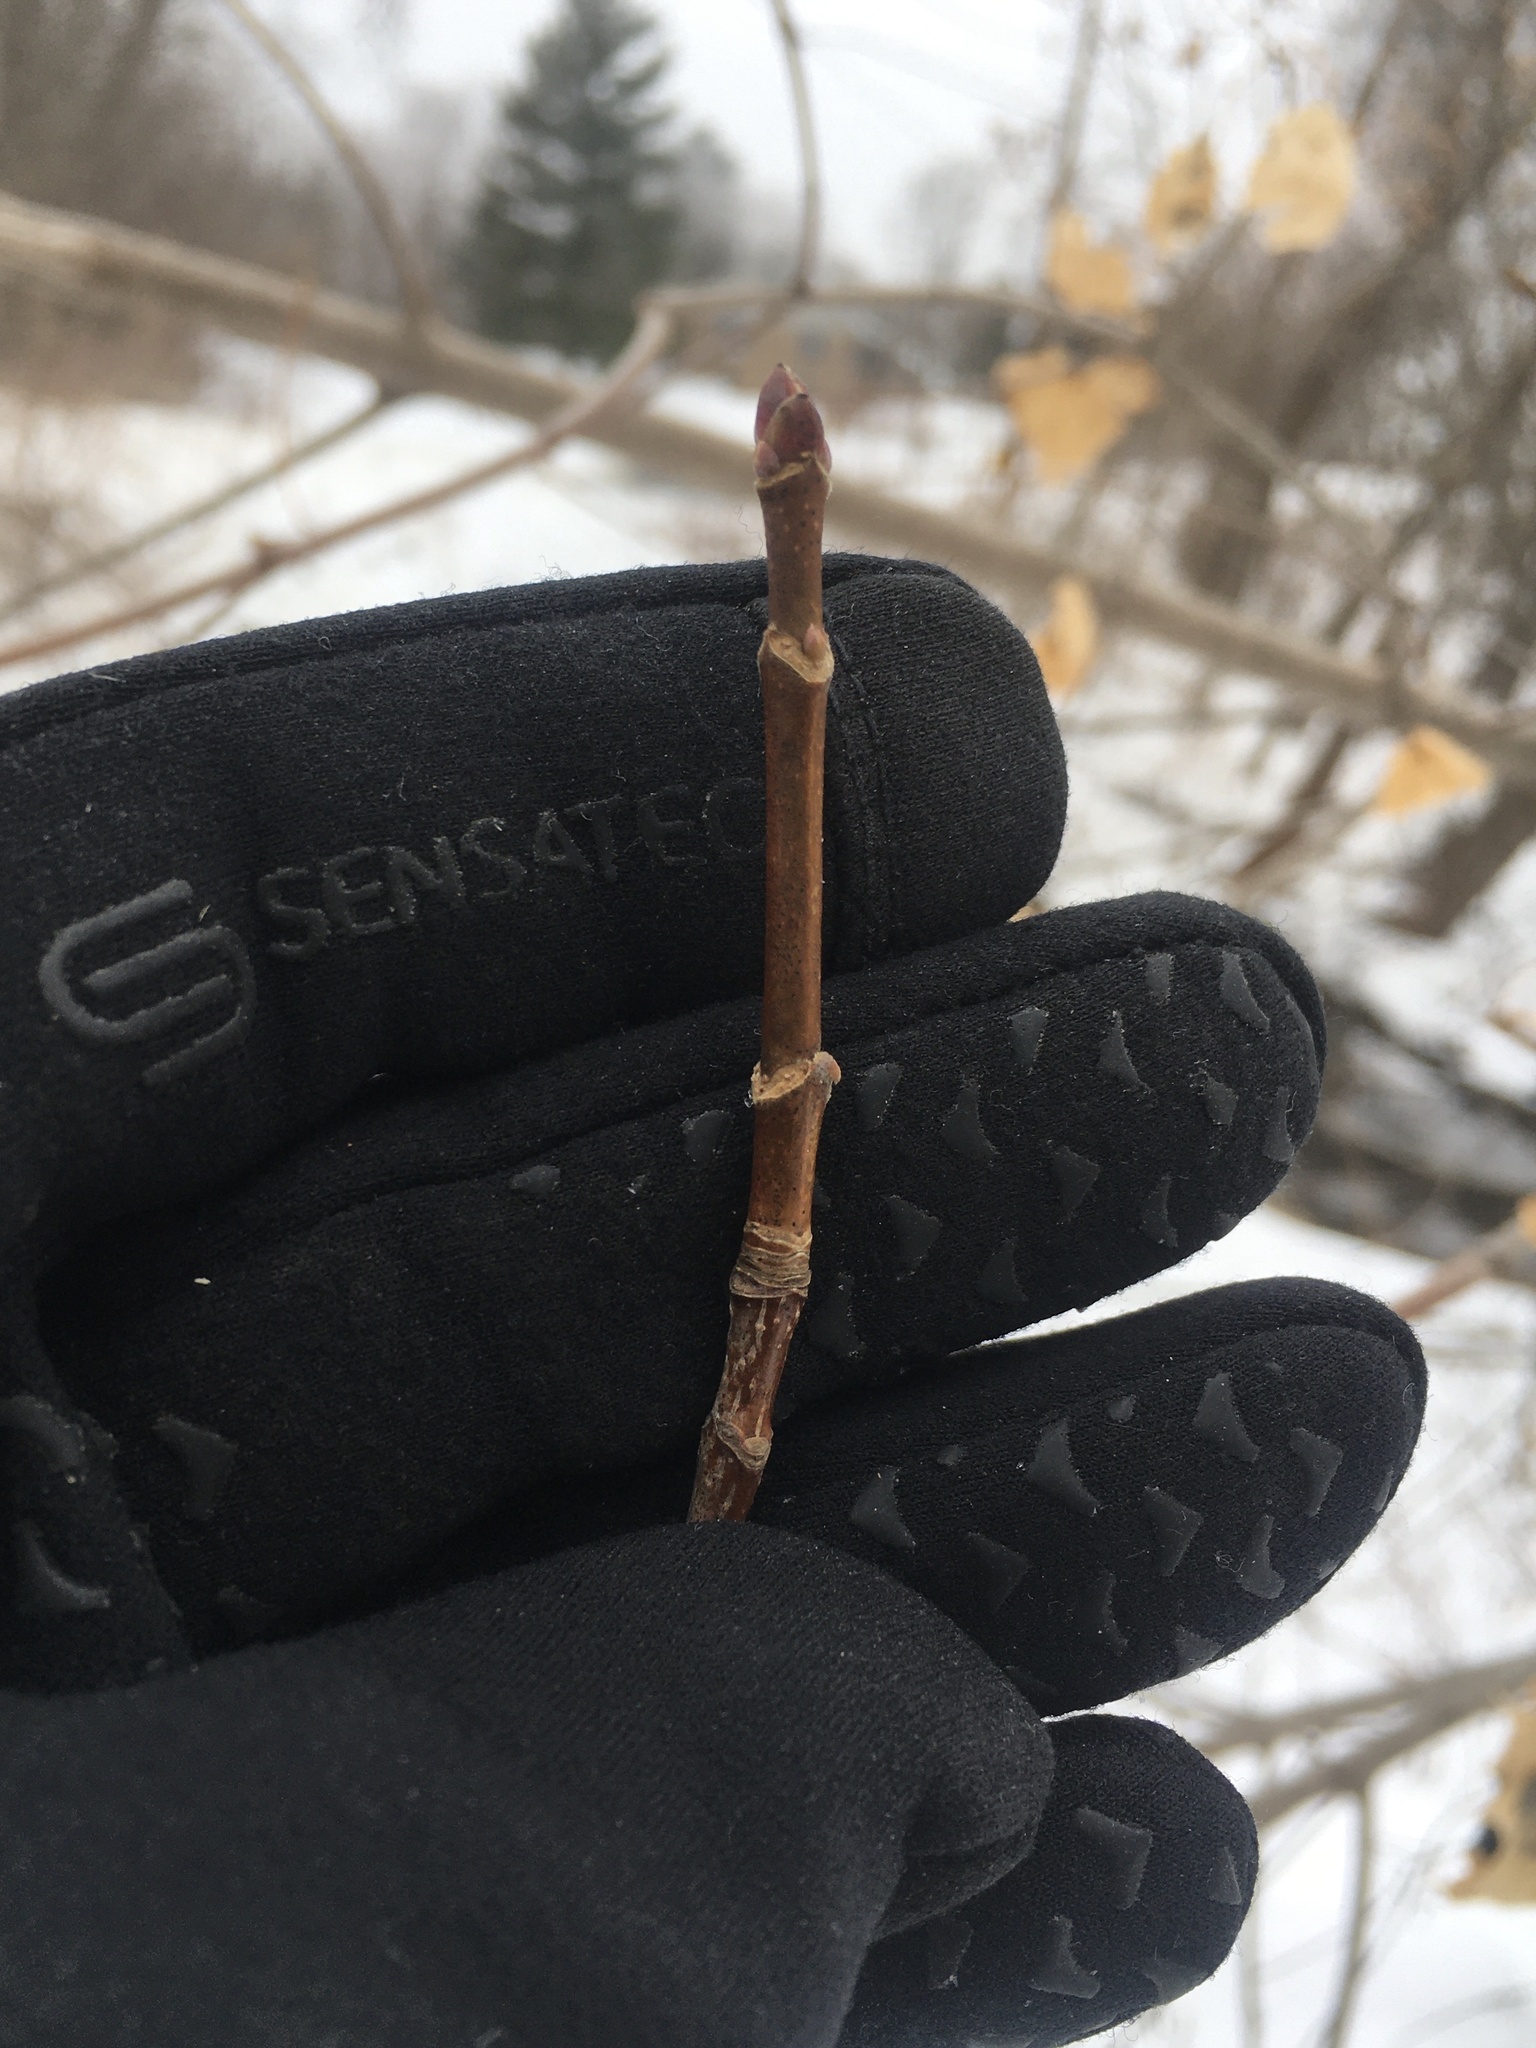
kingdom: Plantae
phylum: Tracheophyta
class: Magnoliopsida
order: Sapindales
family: Sapindaceae
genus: Acer
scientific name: Acer platanoides
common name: Norway maple
